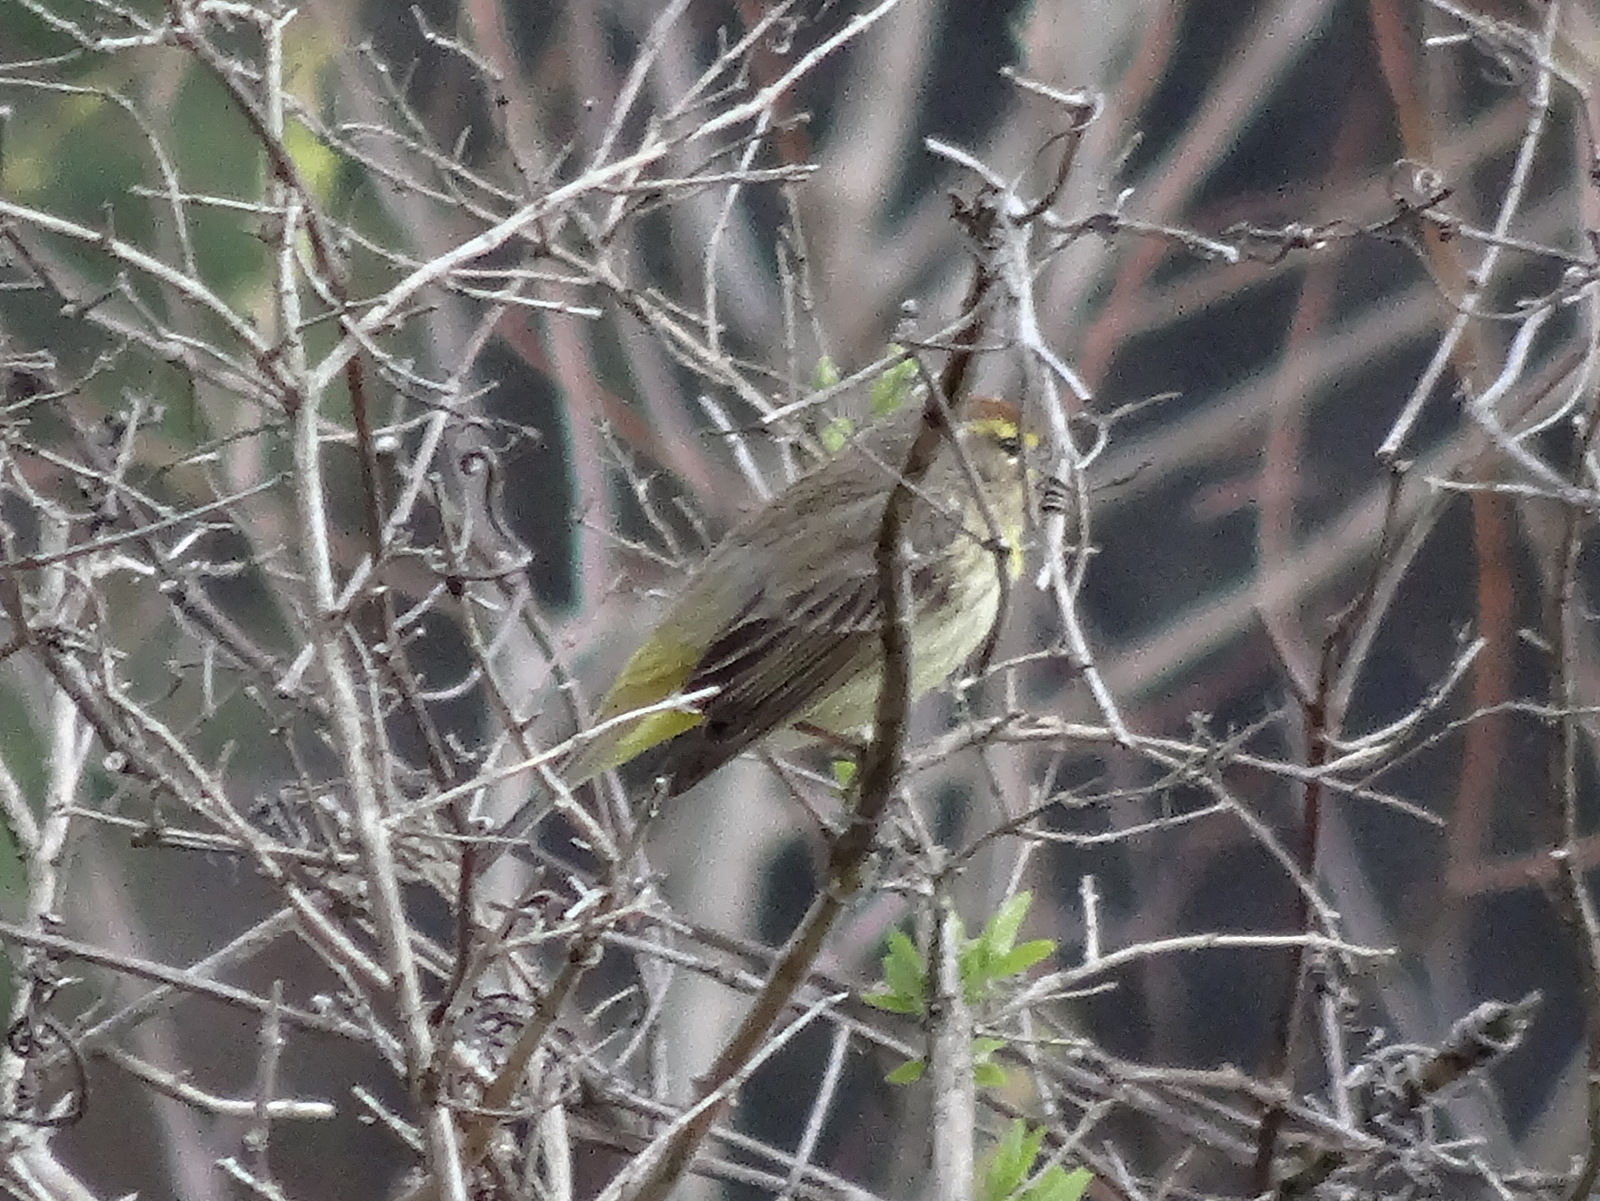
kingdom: Animalia
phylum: Chordata
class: Aves
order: Passeriformes
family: Parulidae
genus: Setophaga
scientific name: Setophaga palmarum
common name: Palm warbler
